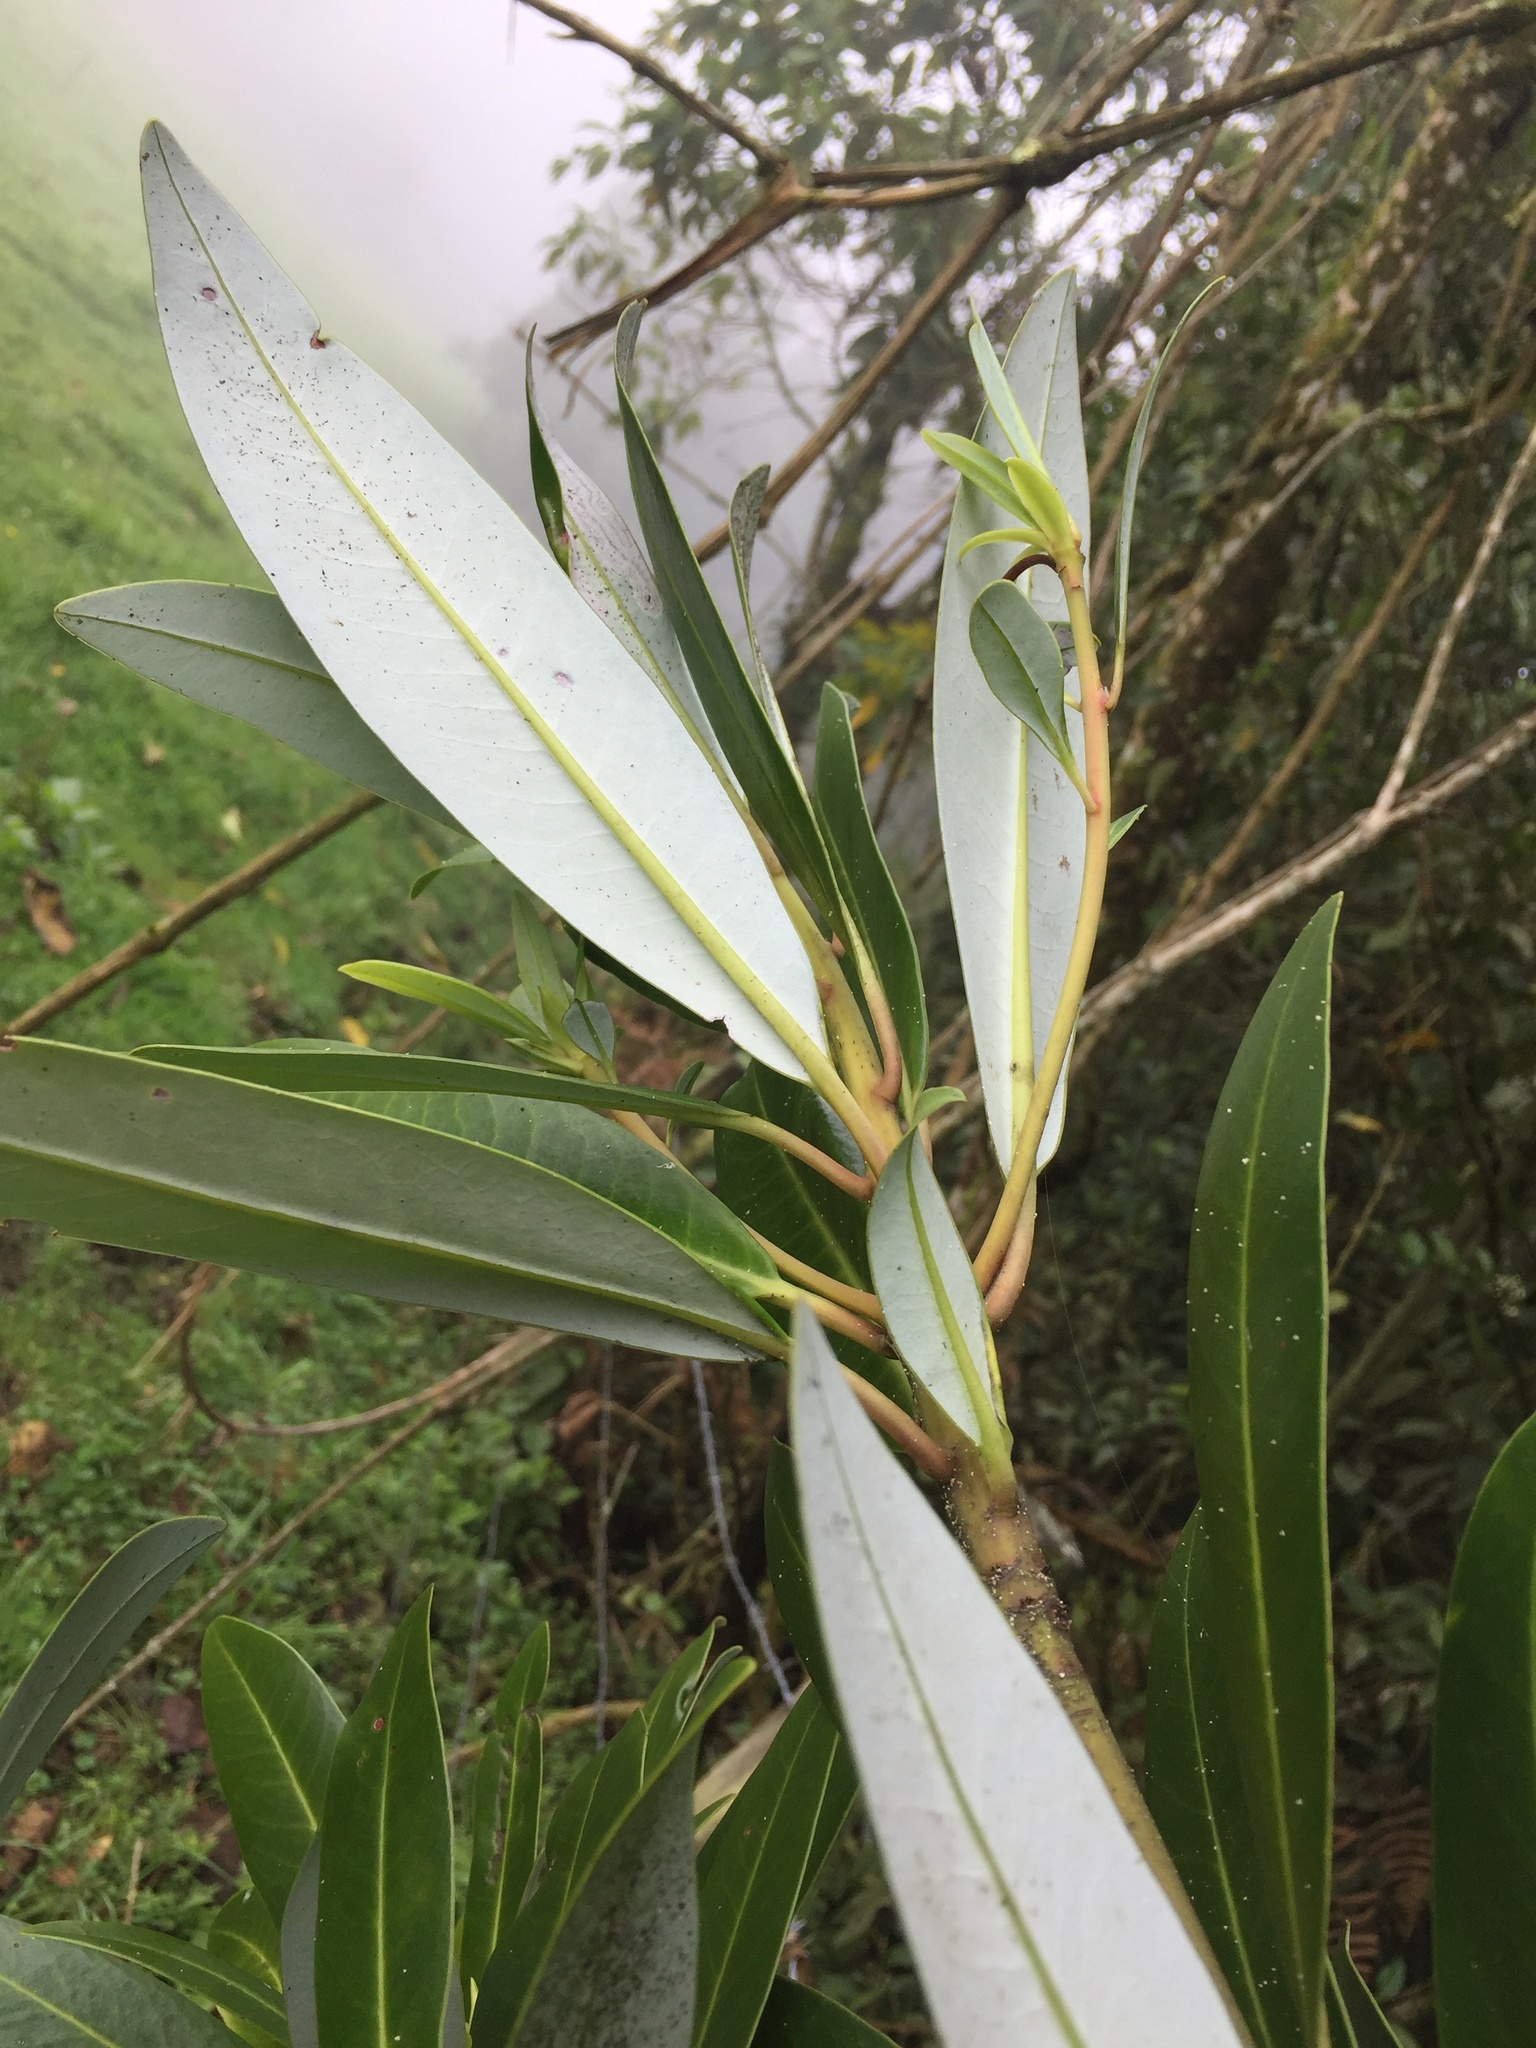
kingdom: Plantae
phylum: Tracheophyta
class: Magnoliopsida
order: Canellales
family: Winteraceae
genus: Drimys
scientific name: Drimys granadensis
